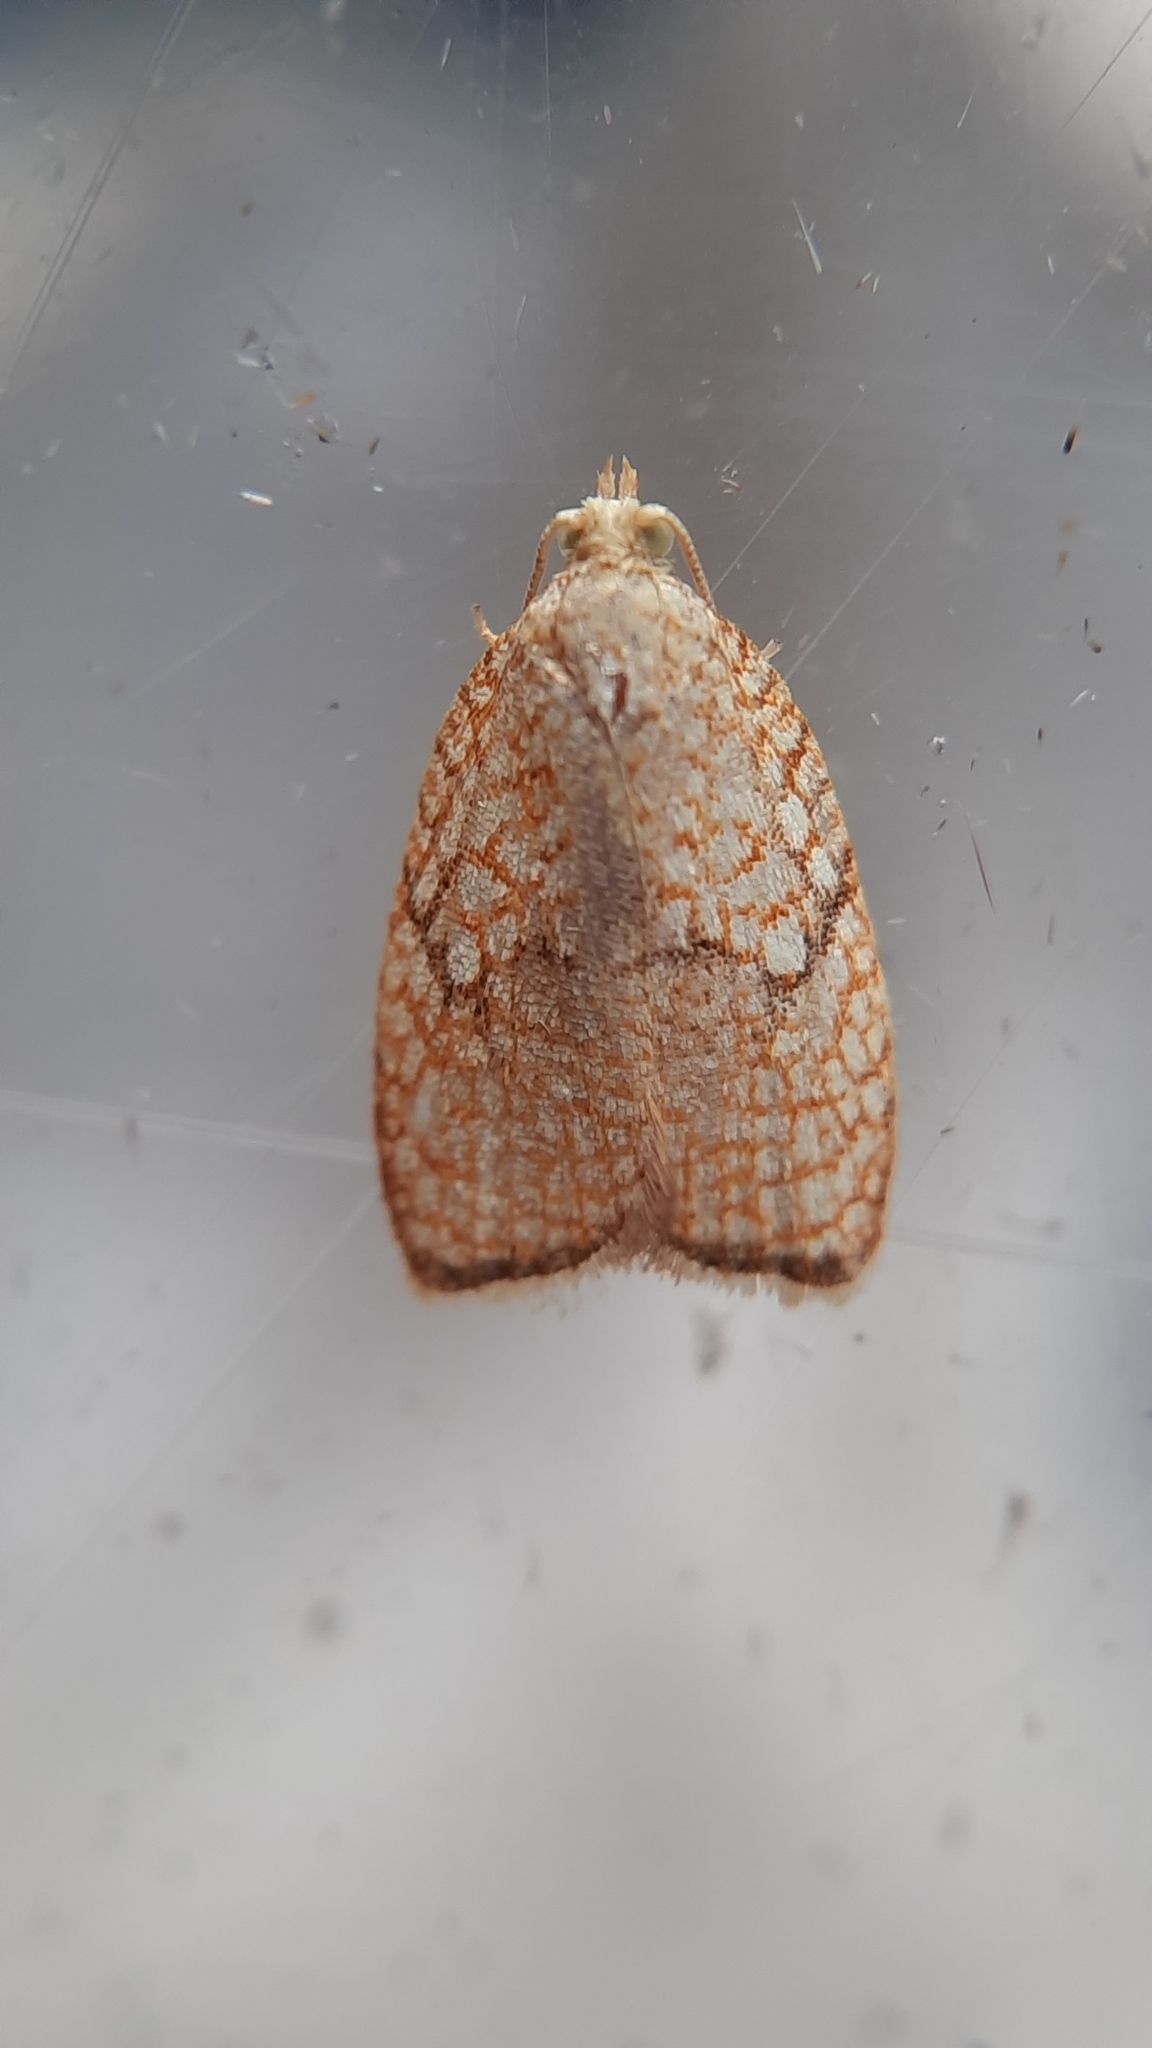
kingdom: Animalia
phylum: Arthropoda
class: Insecta
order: Lepidoptera
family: Tortricidae
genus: Acleris
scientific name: Acleris forsskaleana
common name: Maple button
